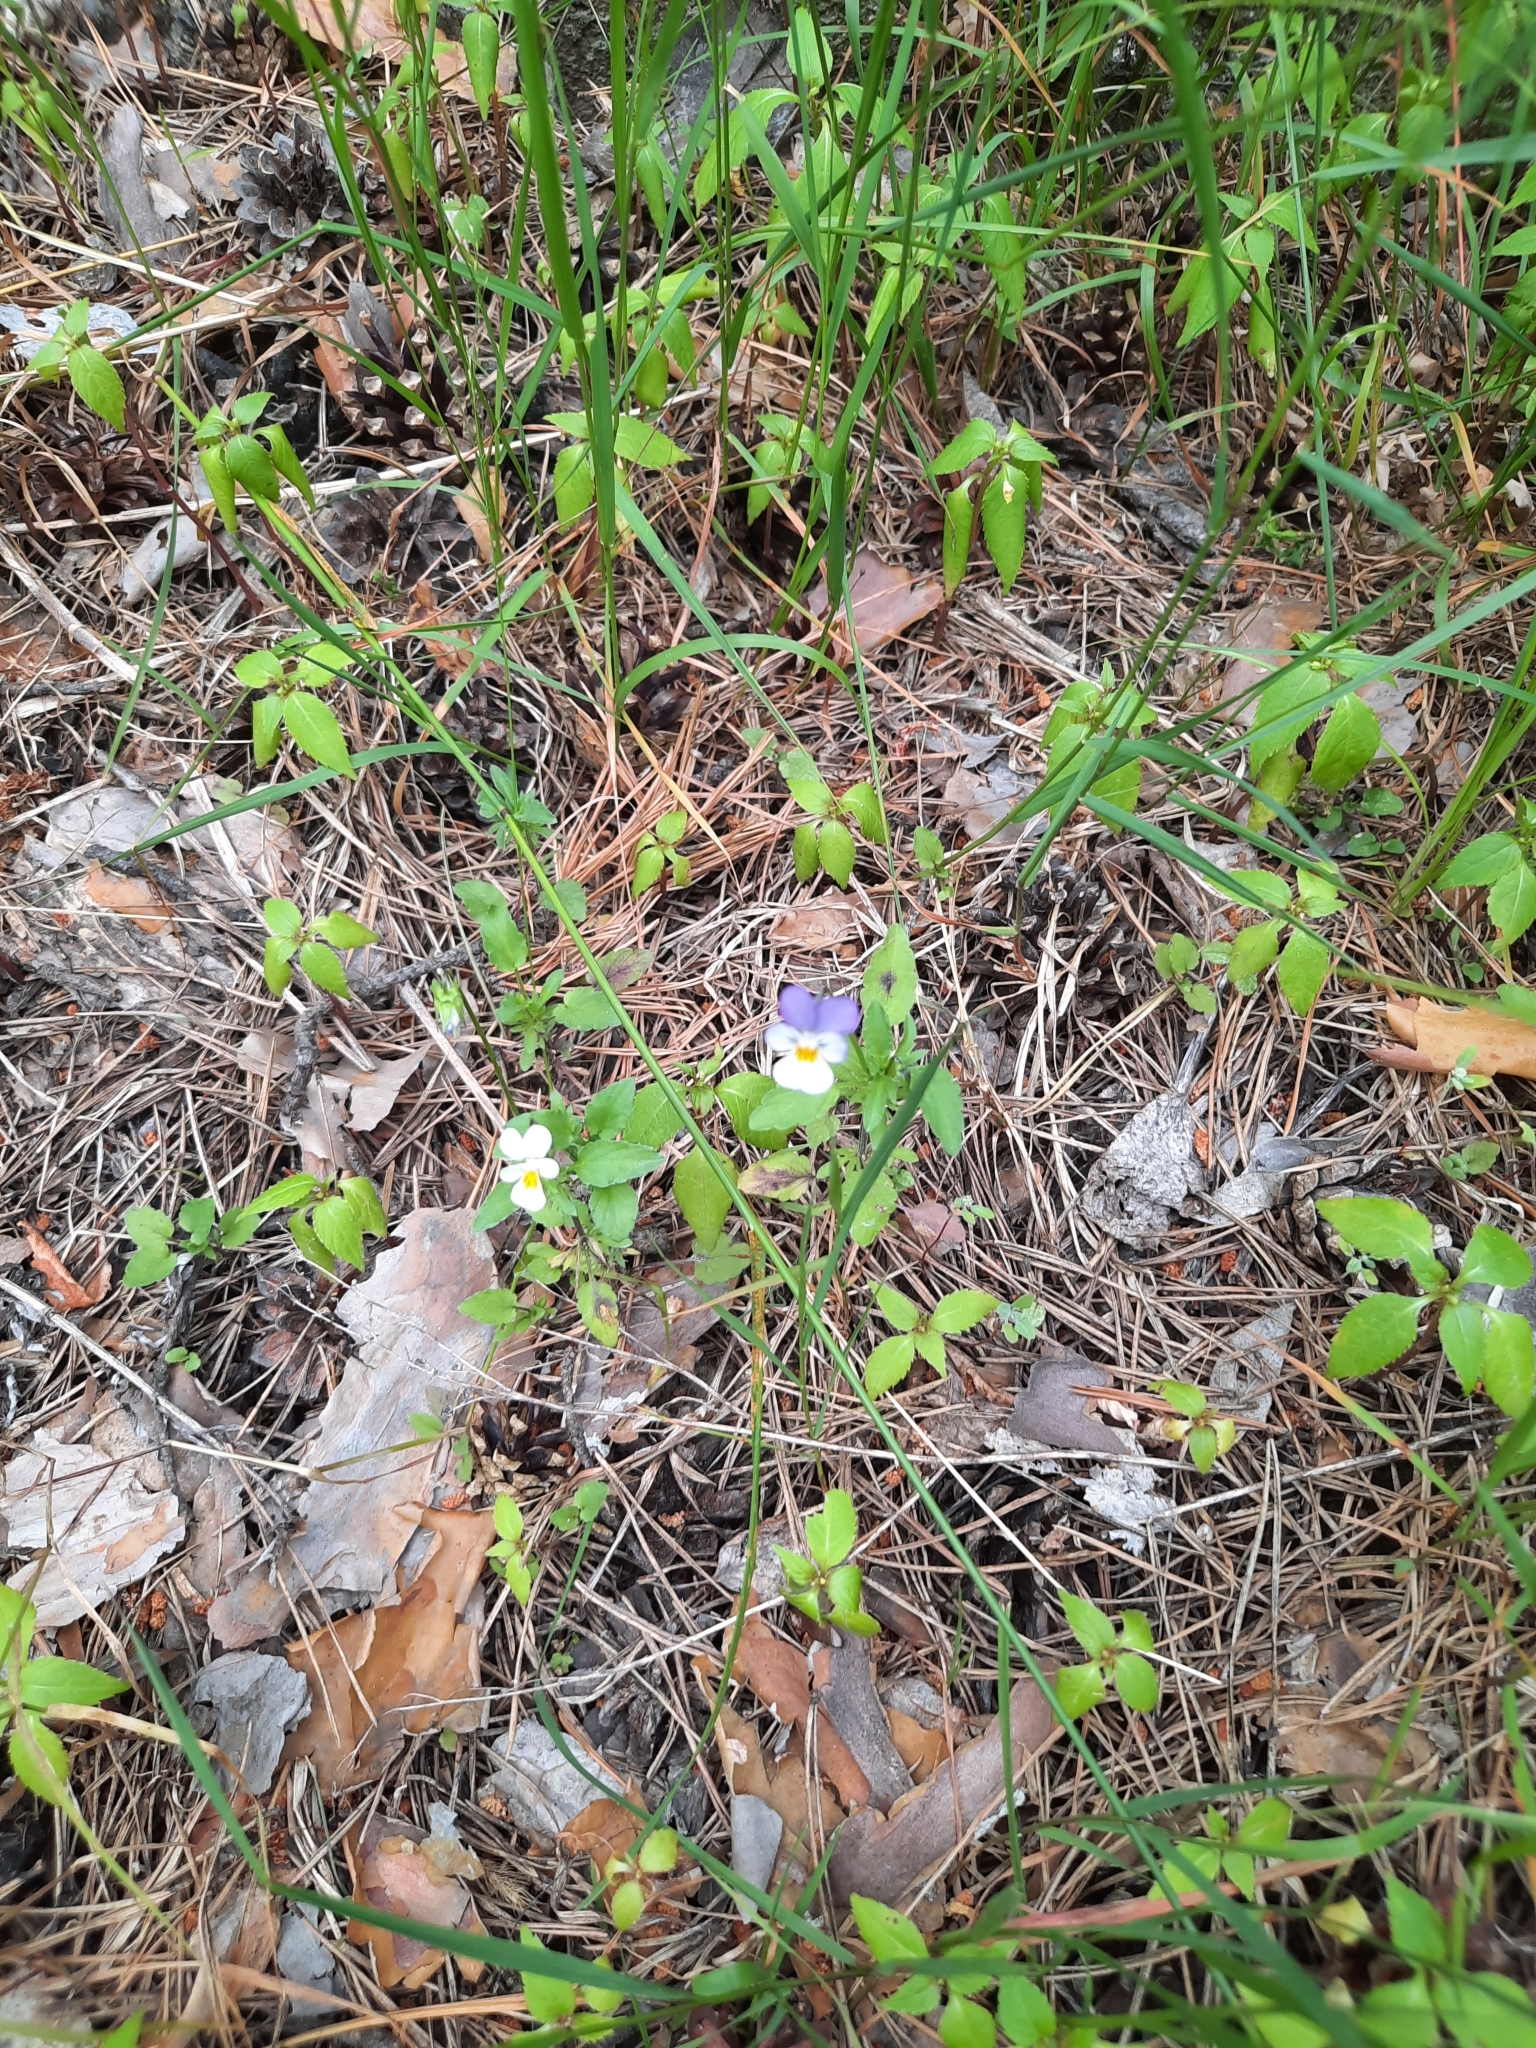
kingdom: Plantae
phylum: Tracheophyta
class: Magnoliopsida
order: Malpighiales
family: Violaceae
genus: Viola
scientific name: Viola tricolor
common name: Pansy
